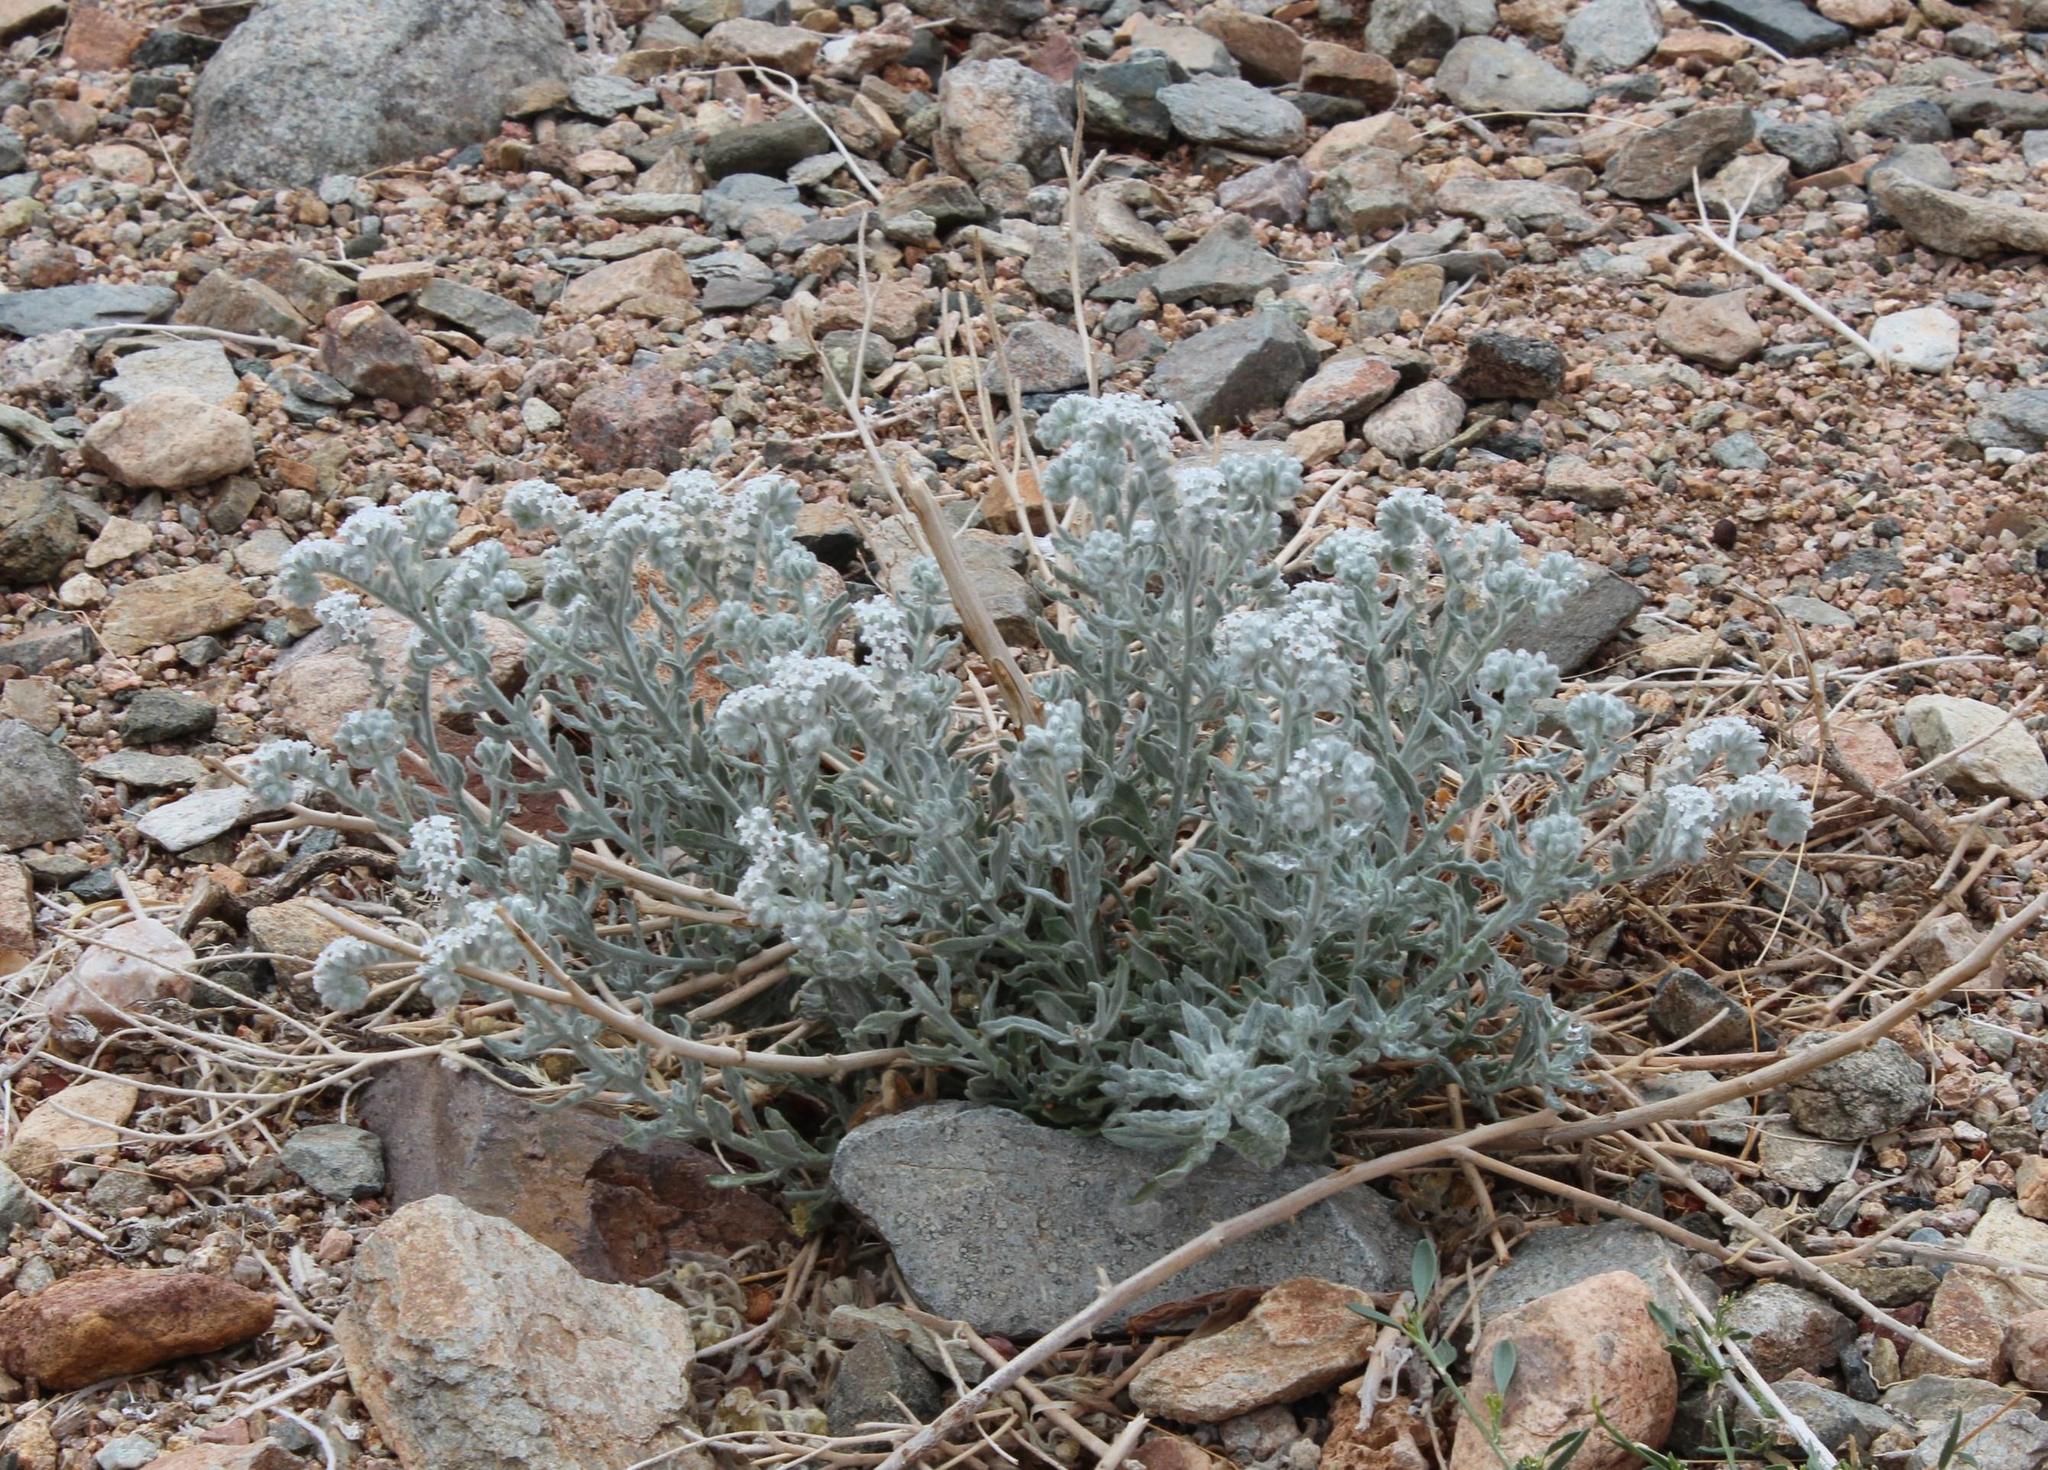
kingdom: Plantae
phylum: Tracheophyta
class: Magnoliopsida
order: Boraginales
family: Heliotropiaceae
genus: Heliotropium
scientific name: Heliotropium tubulosum
